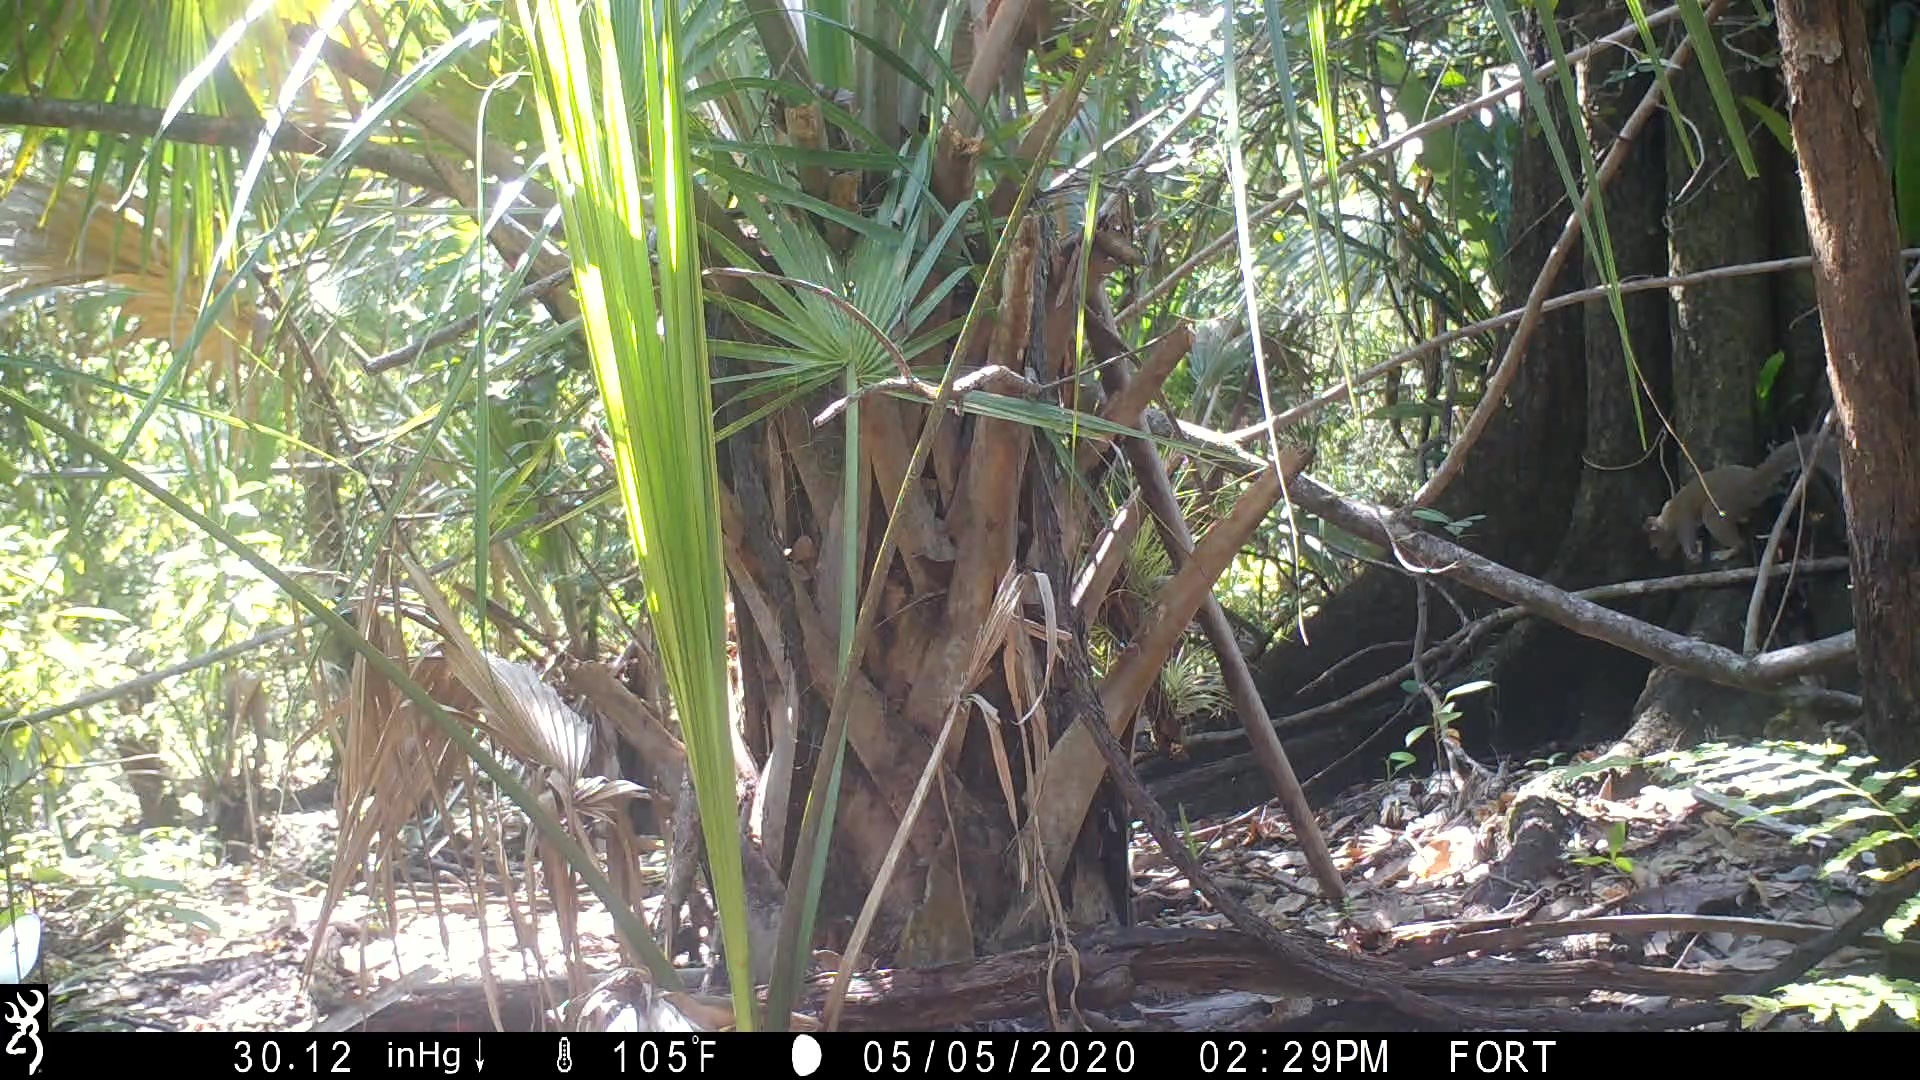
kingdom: Animalia
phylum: Chordata
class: Mammalia
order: Rodentia
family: Sciuridae
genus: Sciurus
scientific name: Sciurus carolinensis
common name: Eastern gray squirrel
